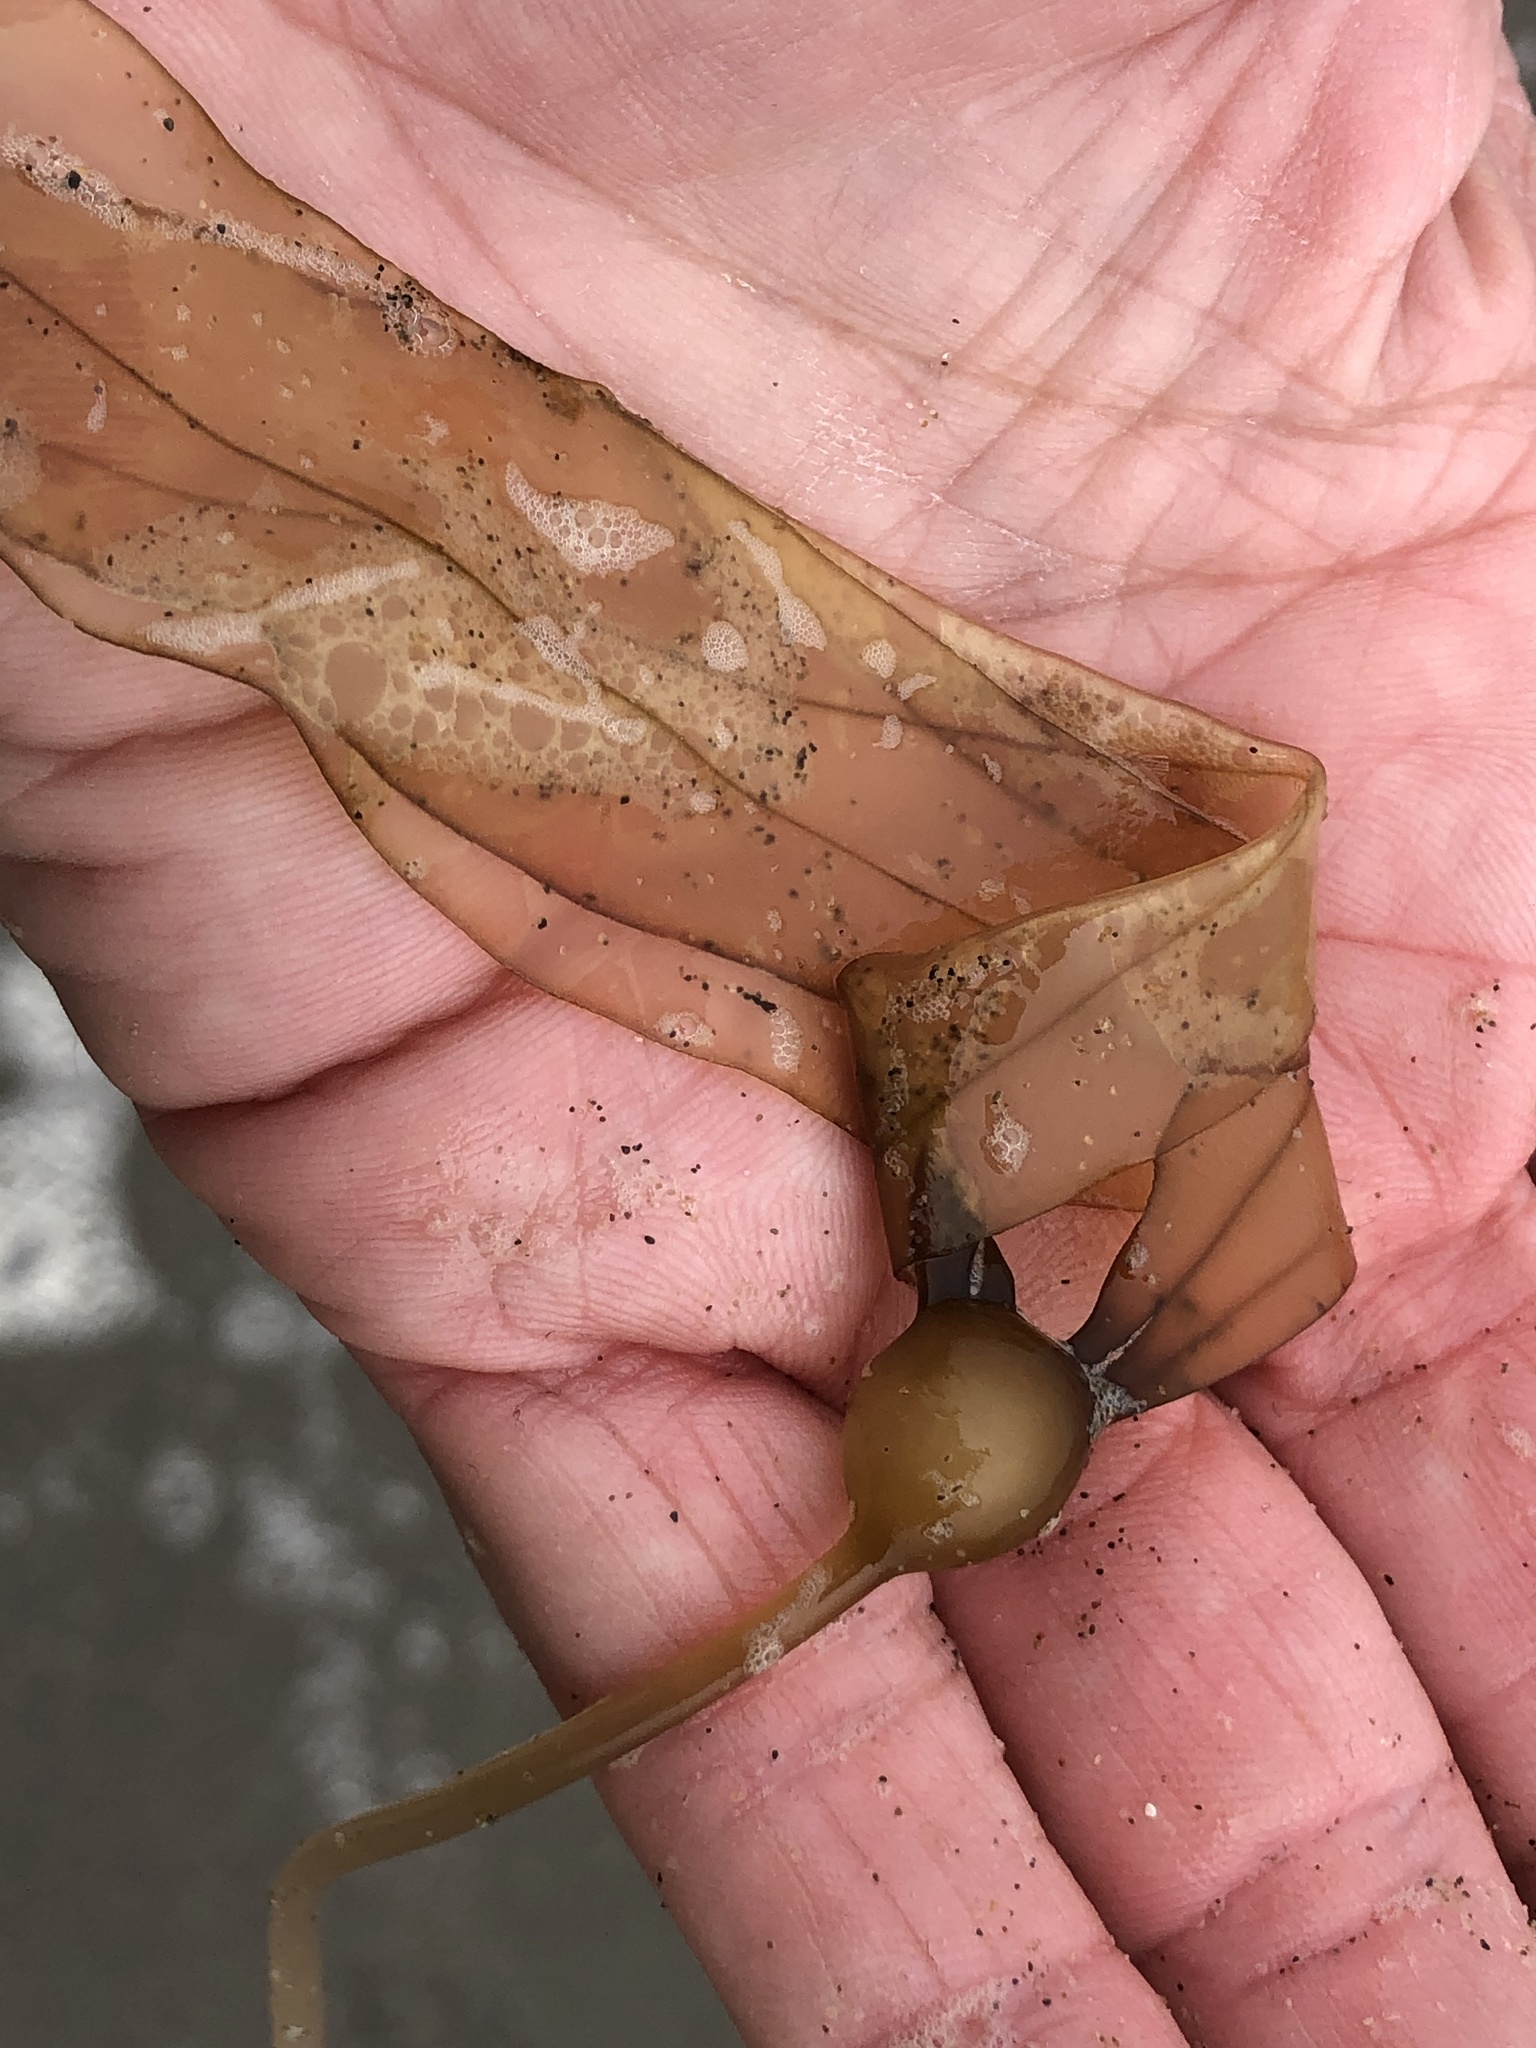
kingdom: Chromista
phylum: Ochrophyta
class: Phaeophyceae
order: Laminariales
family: Laminariaceae
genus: Nereocystis
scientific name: Nereocystis luetkeana
